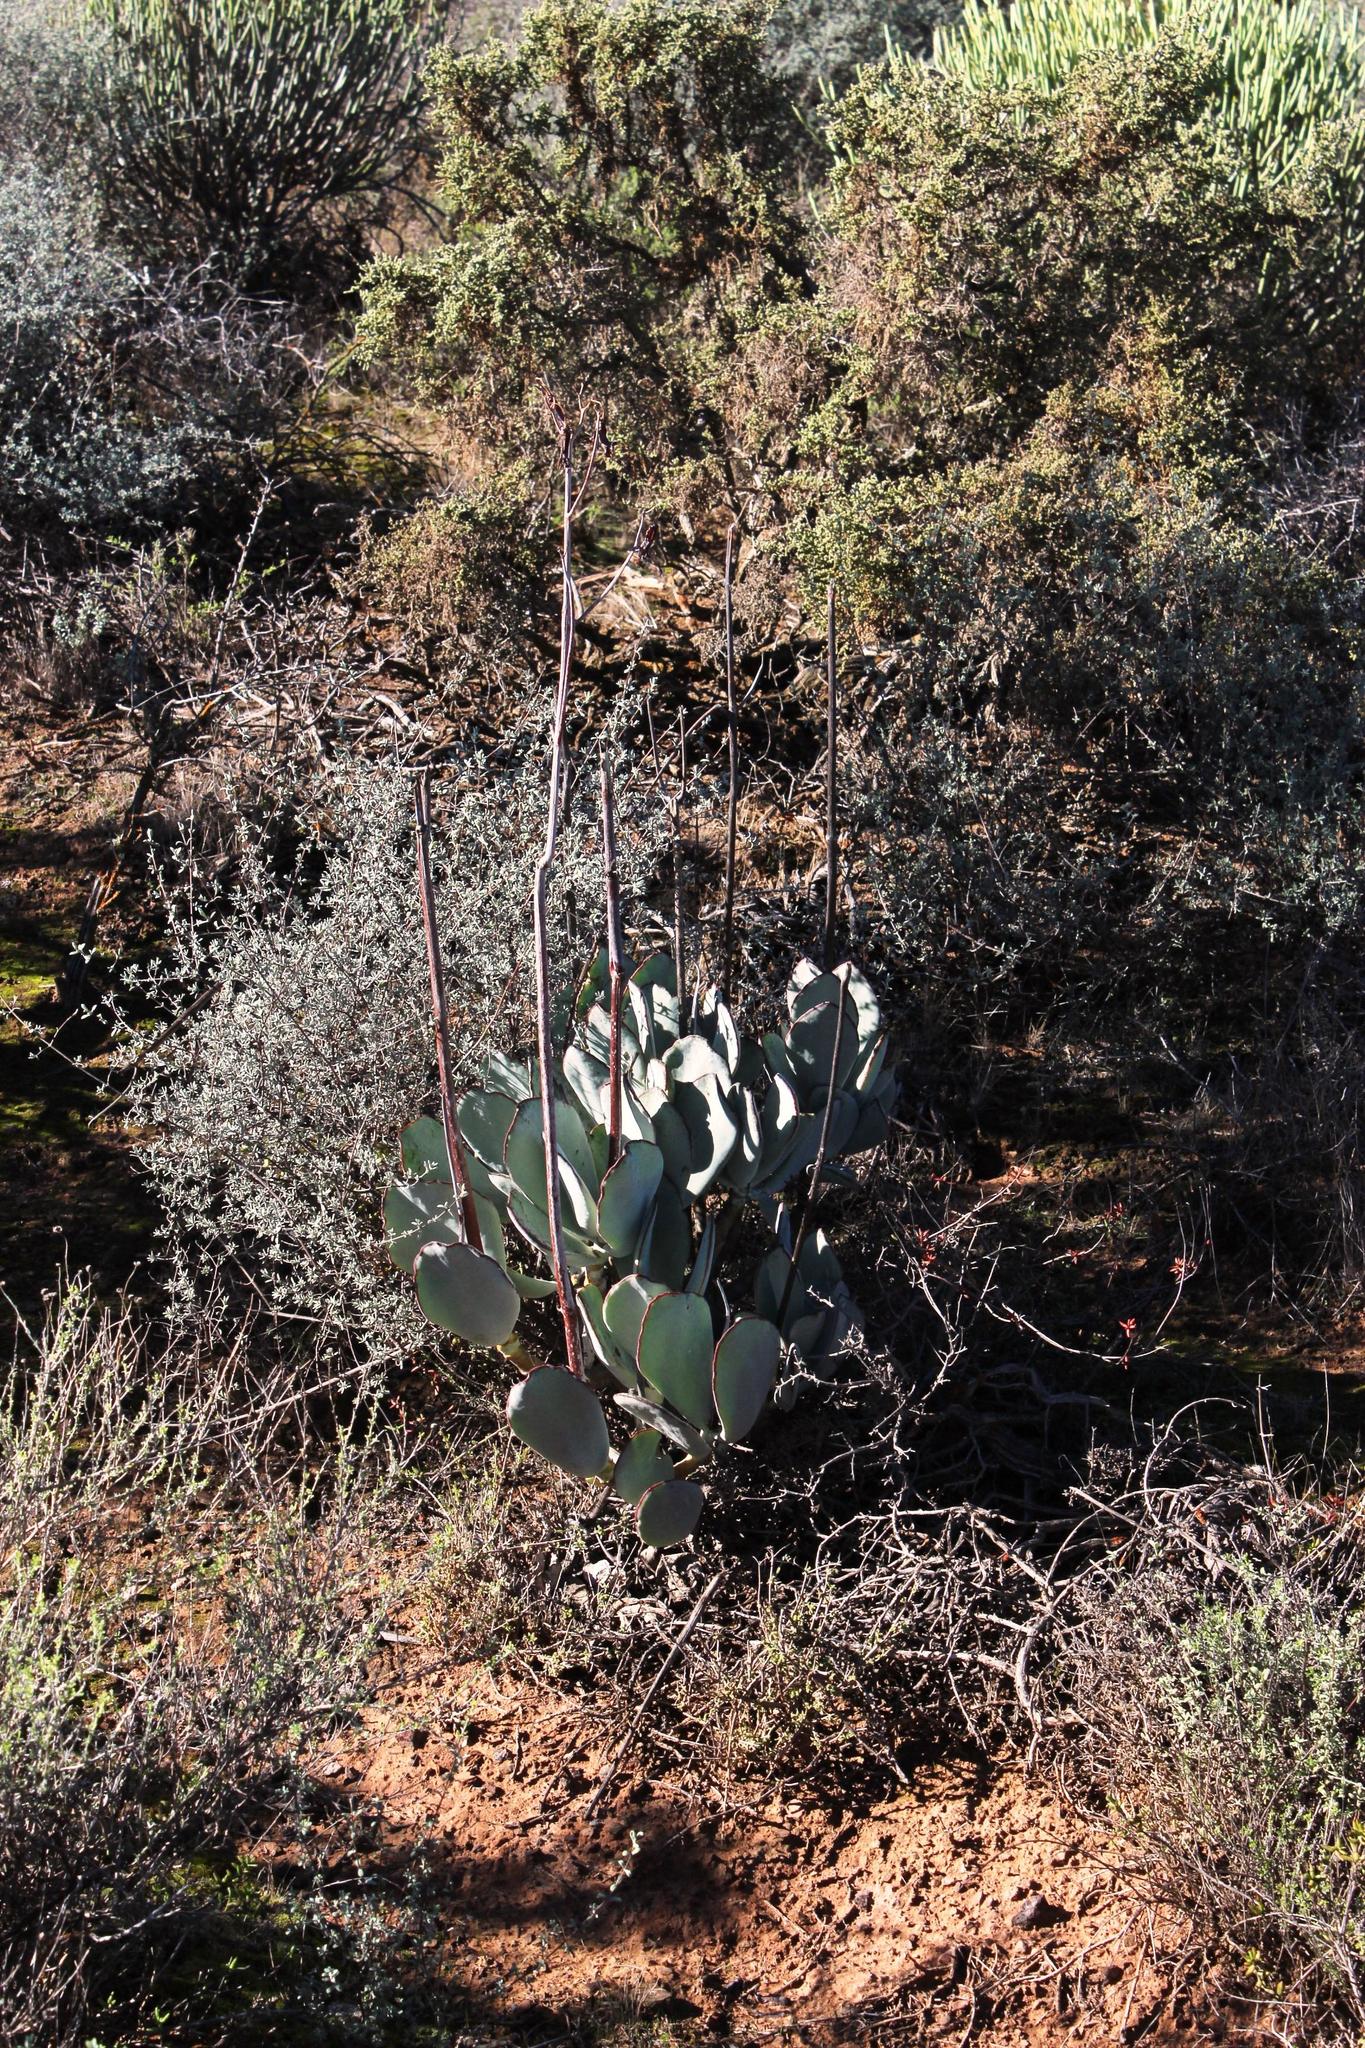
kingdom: Plantae
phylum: Tracheophyta
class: Magnoliopsida
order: Saxifragales
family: Crassulaceae
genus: Cotyledon
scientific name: Cotyledon orbiculata
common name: Pig's ear
